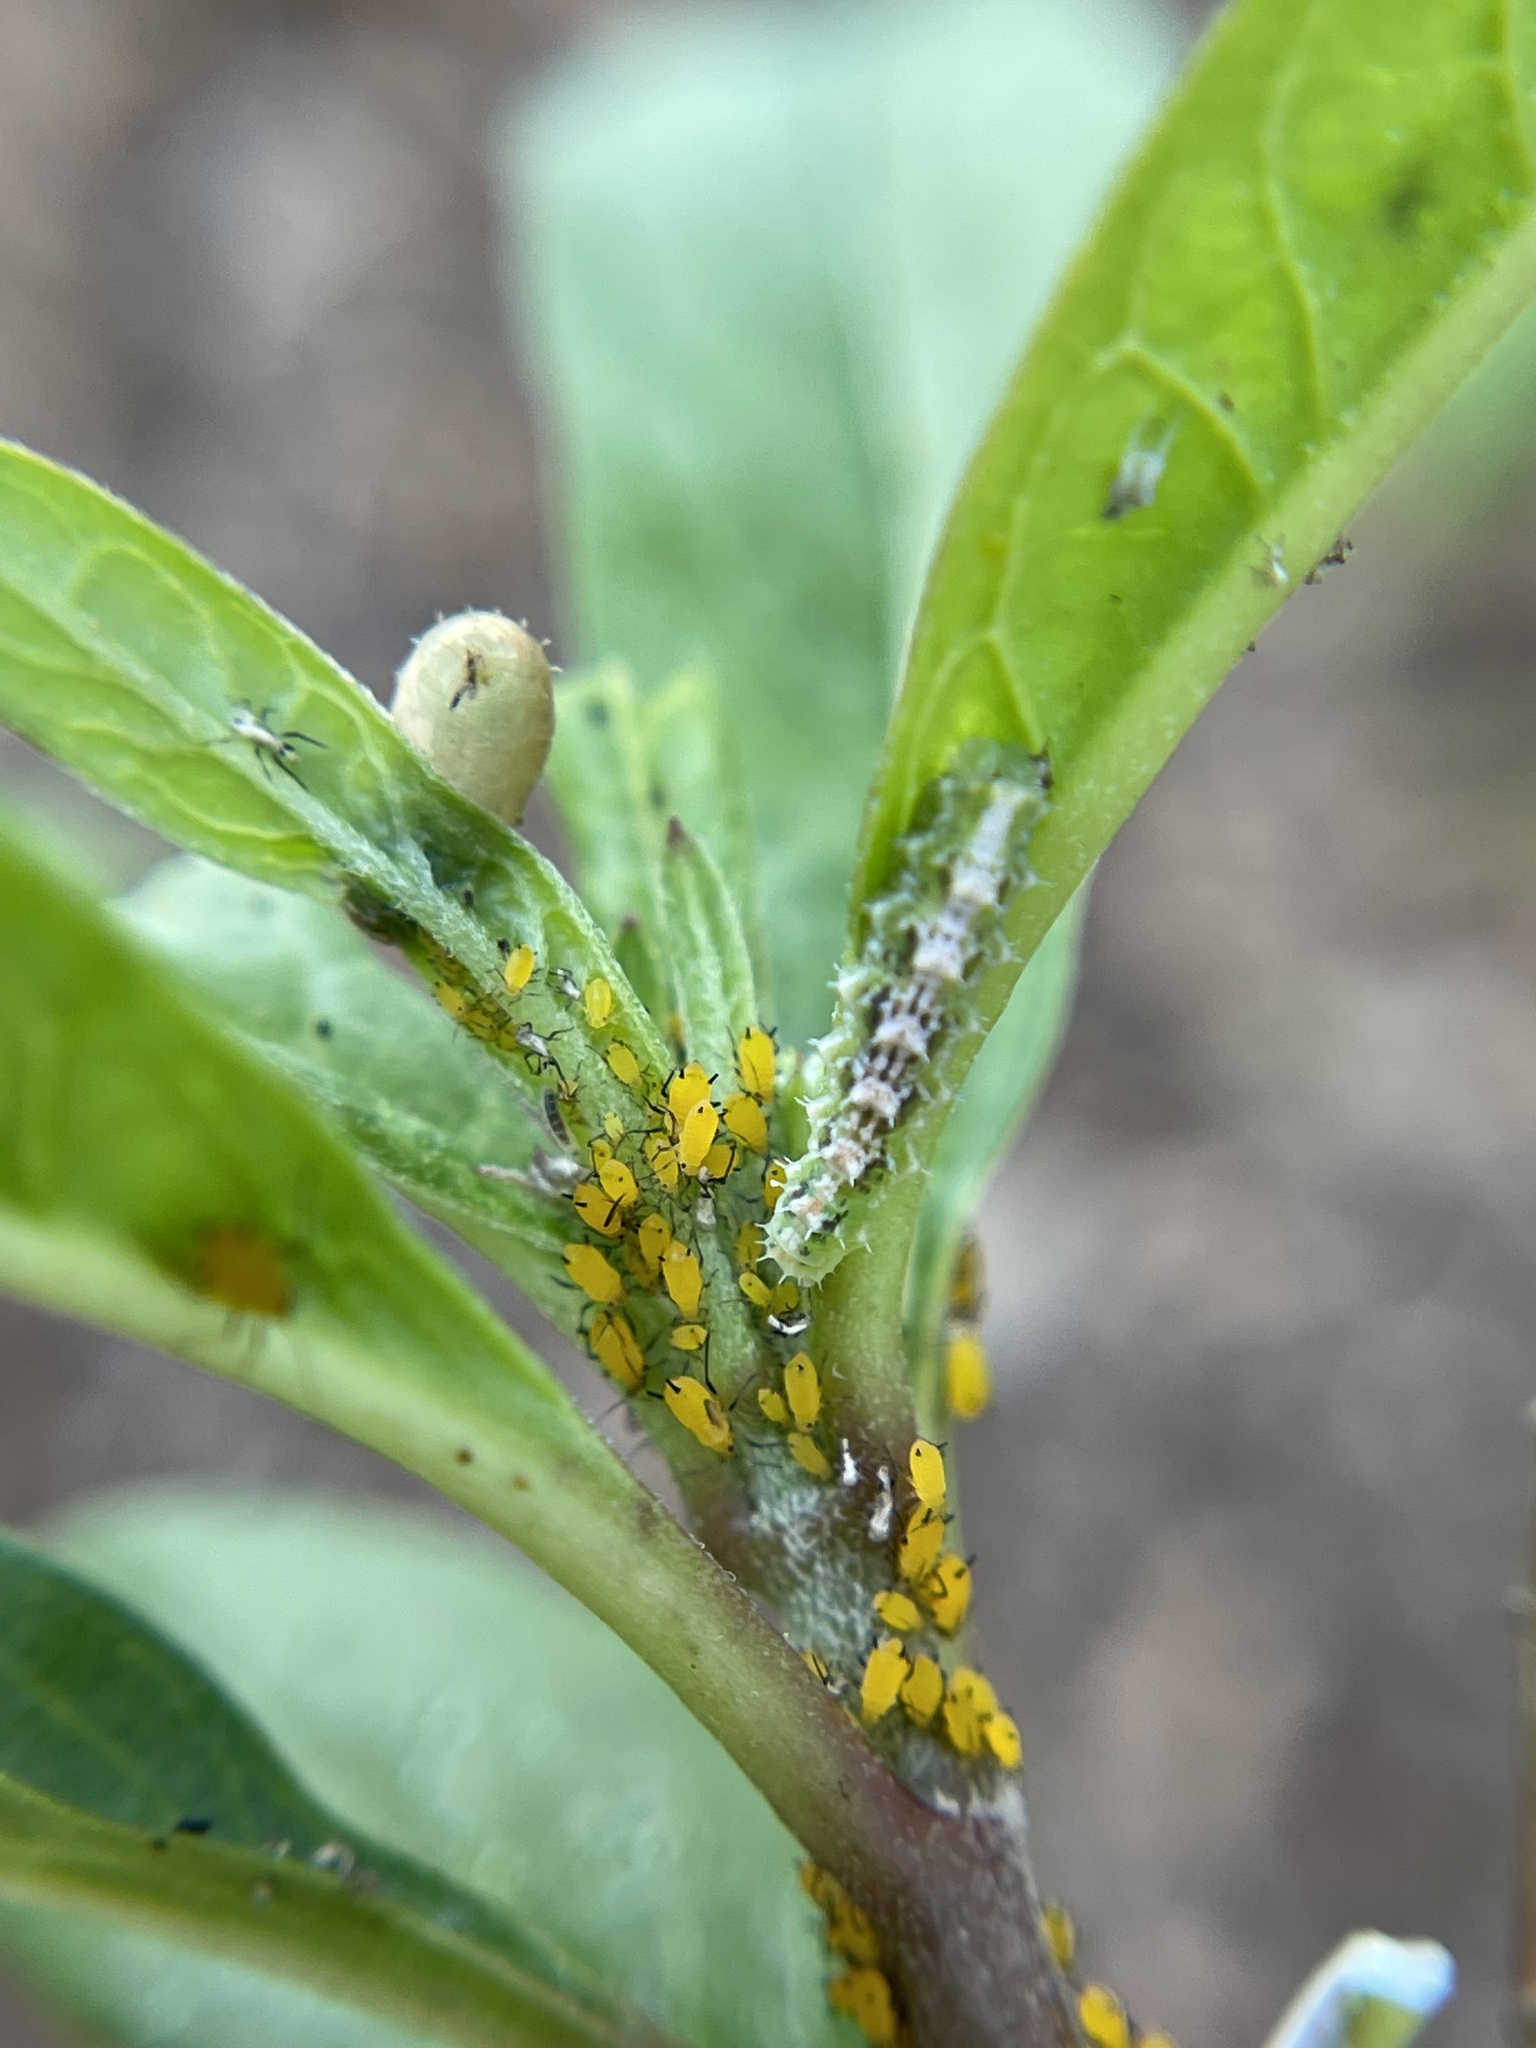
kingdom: Animalia
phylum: Arthropoda
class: Insecta
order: Diptera
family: Syrphidae
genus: Dioprosopa
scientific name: Dioprosopa clavatus
